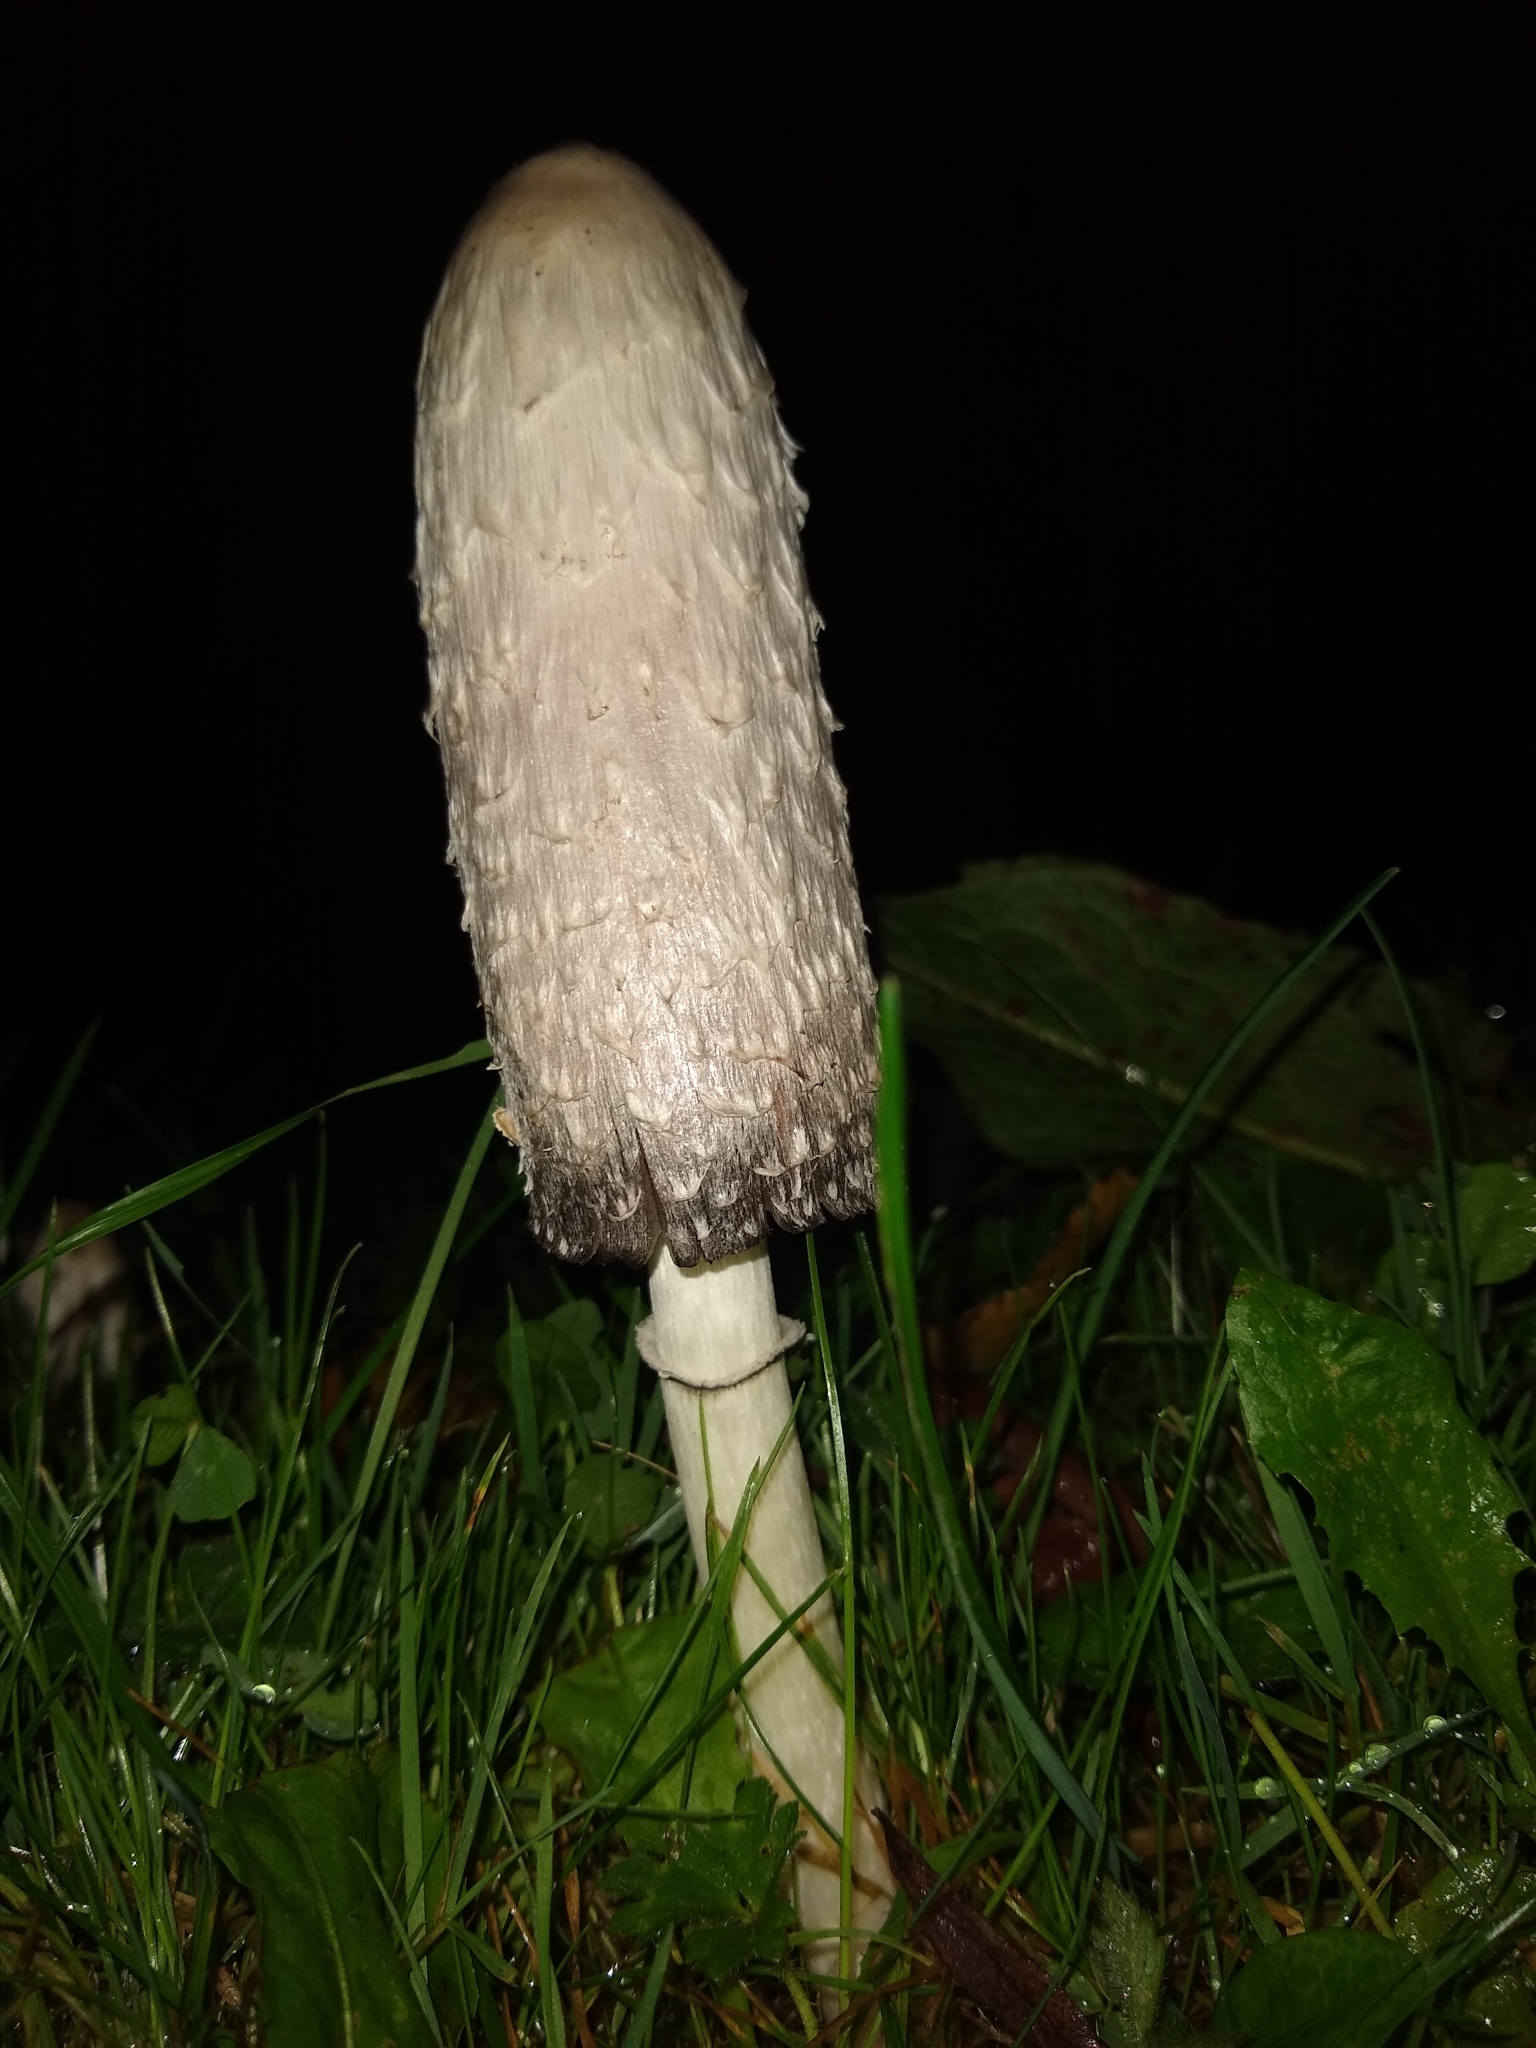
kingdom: Fungi
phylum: Basidiomycota
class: Agaricomycetes
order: Agaricales
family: Agaricaceae
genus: Coprinus
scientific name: Coprinus comatus
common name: Lawyer's wig
